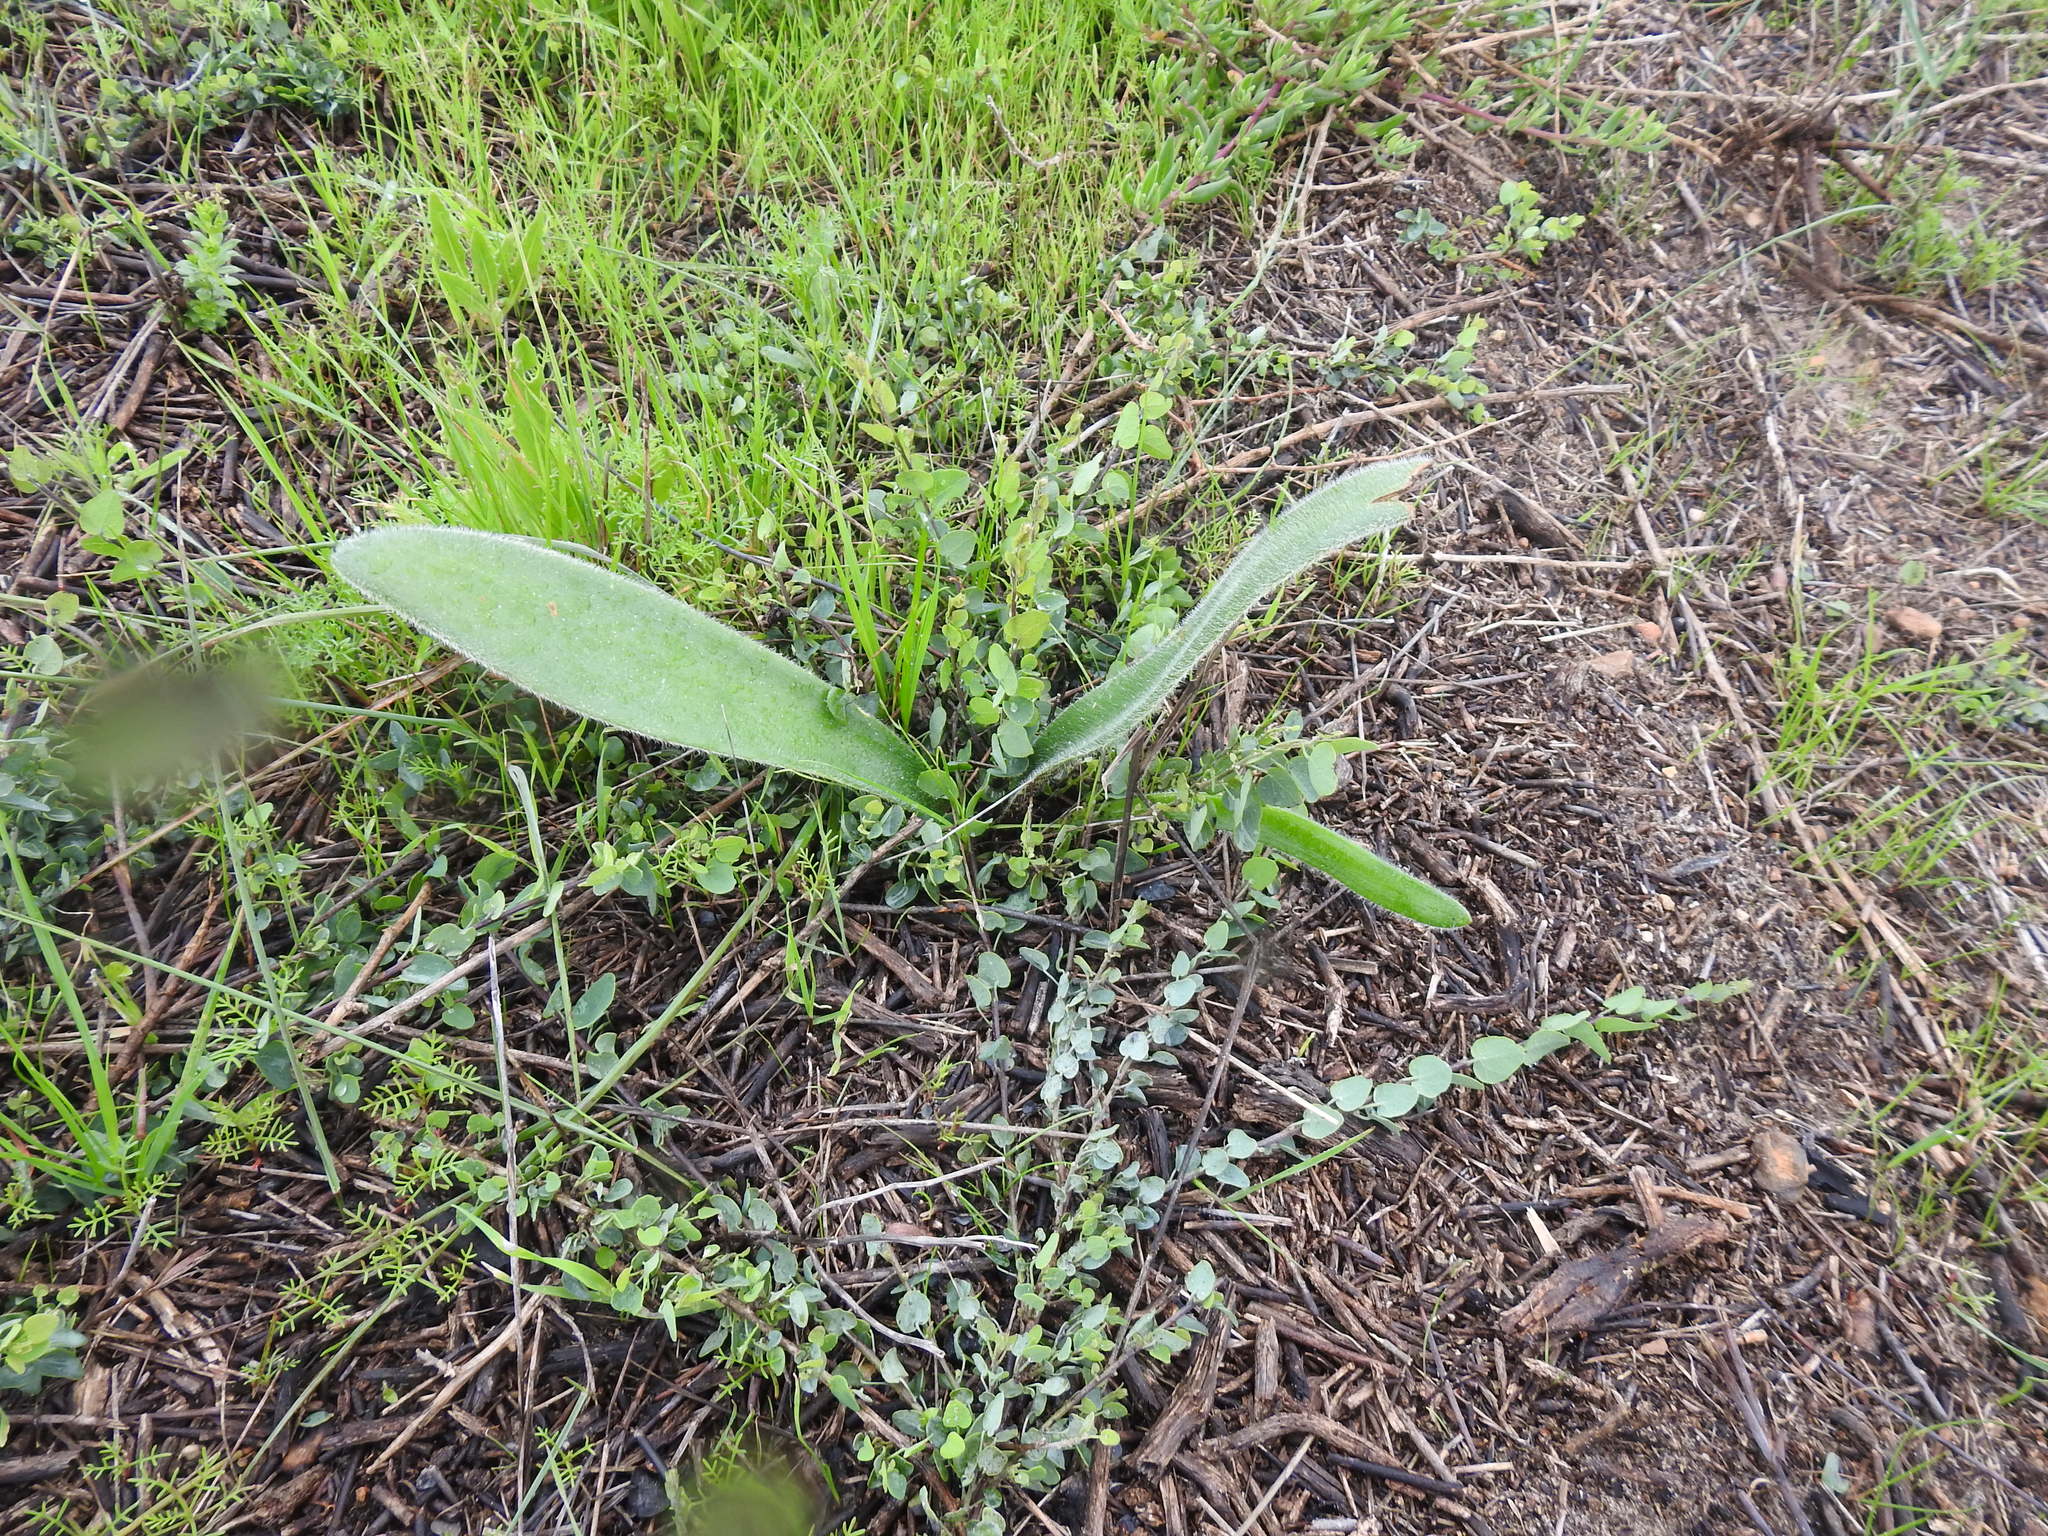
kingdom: Plantae
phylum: Tracheophyta
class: Liliopsida
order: Asparagales
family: Amaryllidaceae
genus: Haemanthus
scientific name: Haemanthus pubescens
